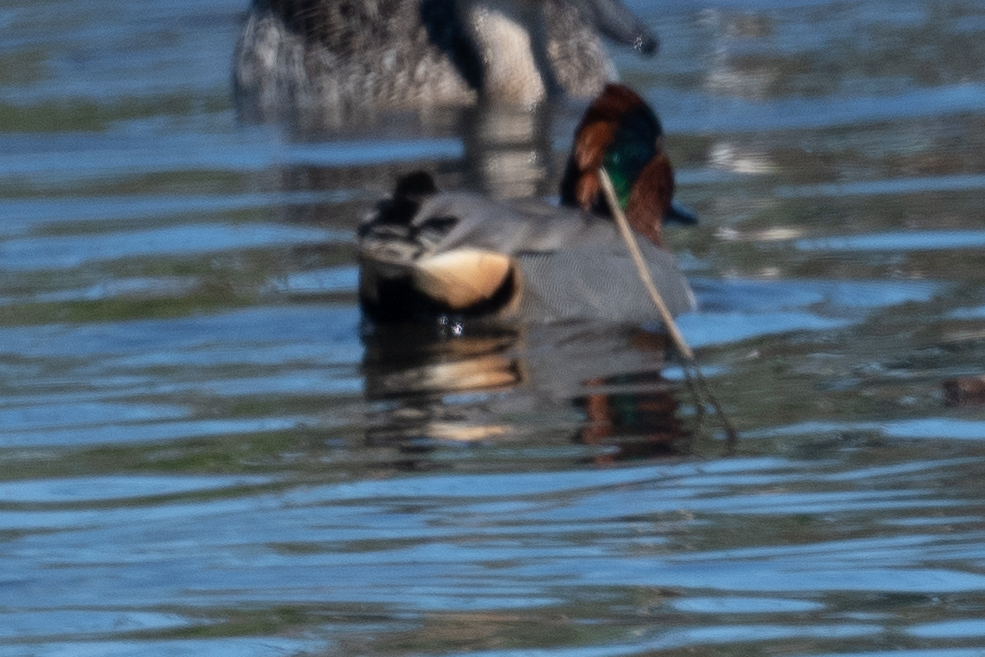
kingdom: Animalia
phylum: Chordata
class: Aves
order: Anseriformes
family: Anatidae
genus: Anas
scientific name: Anas crecca
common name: Eurasian teal
